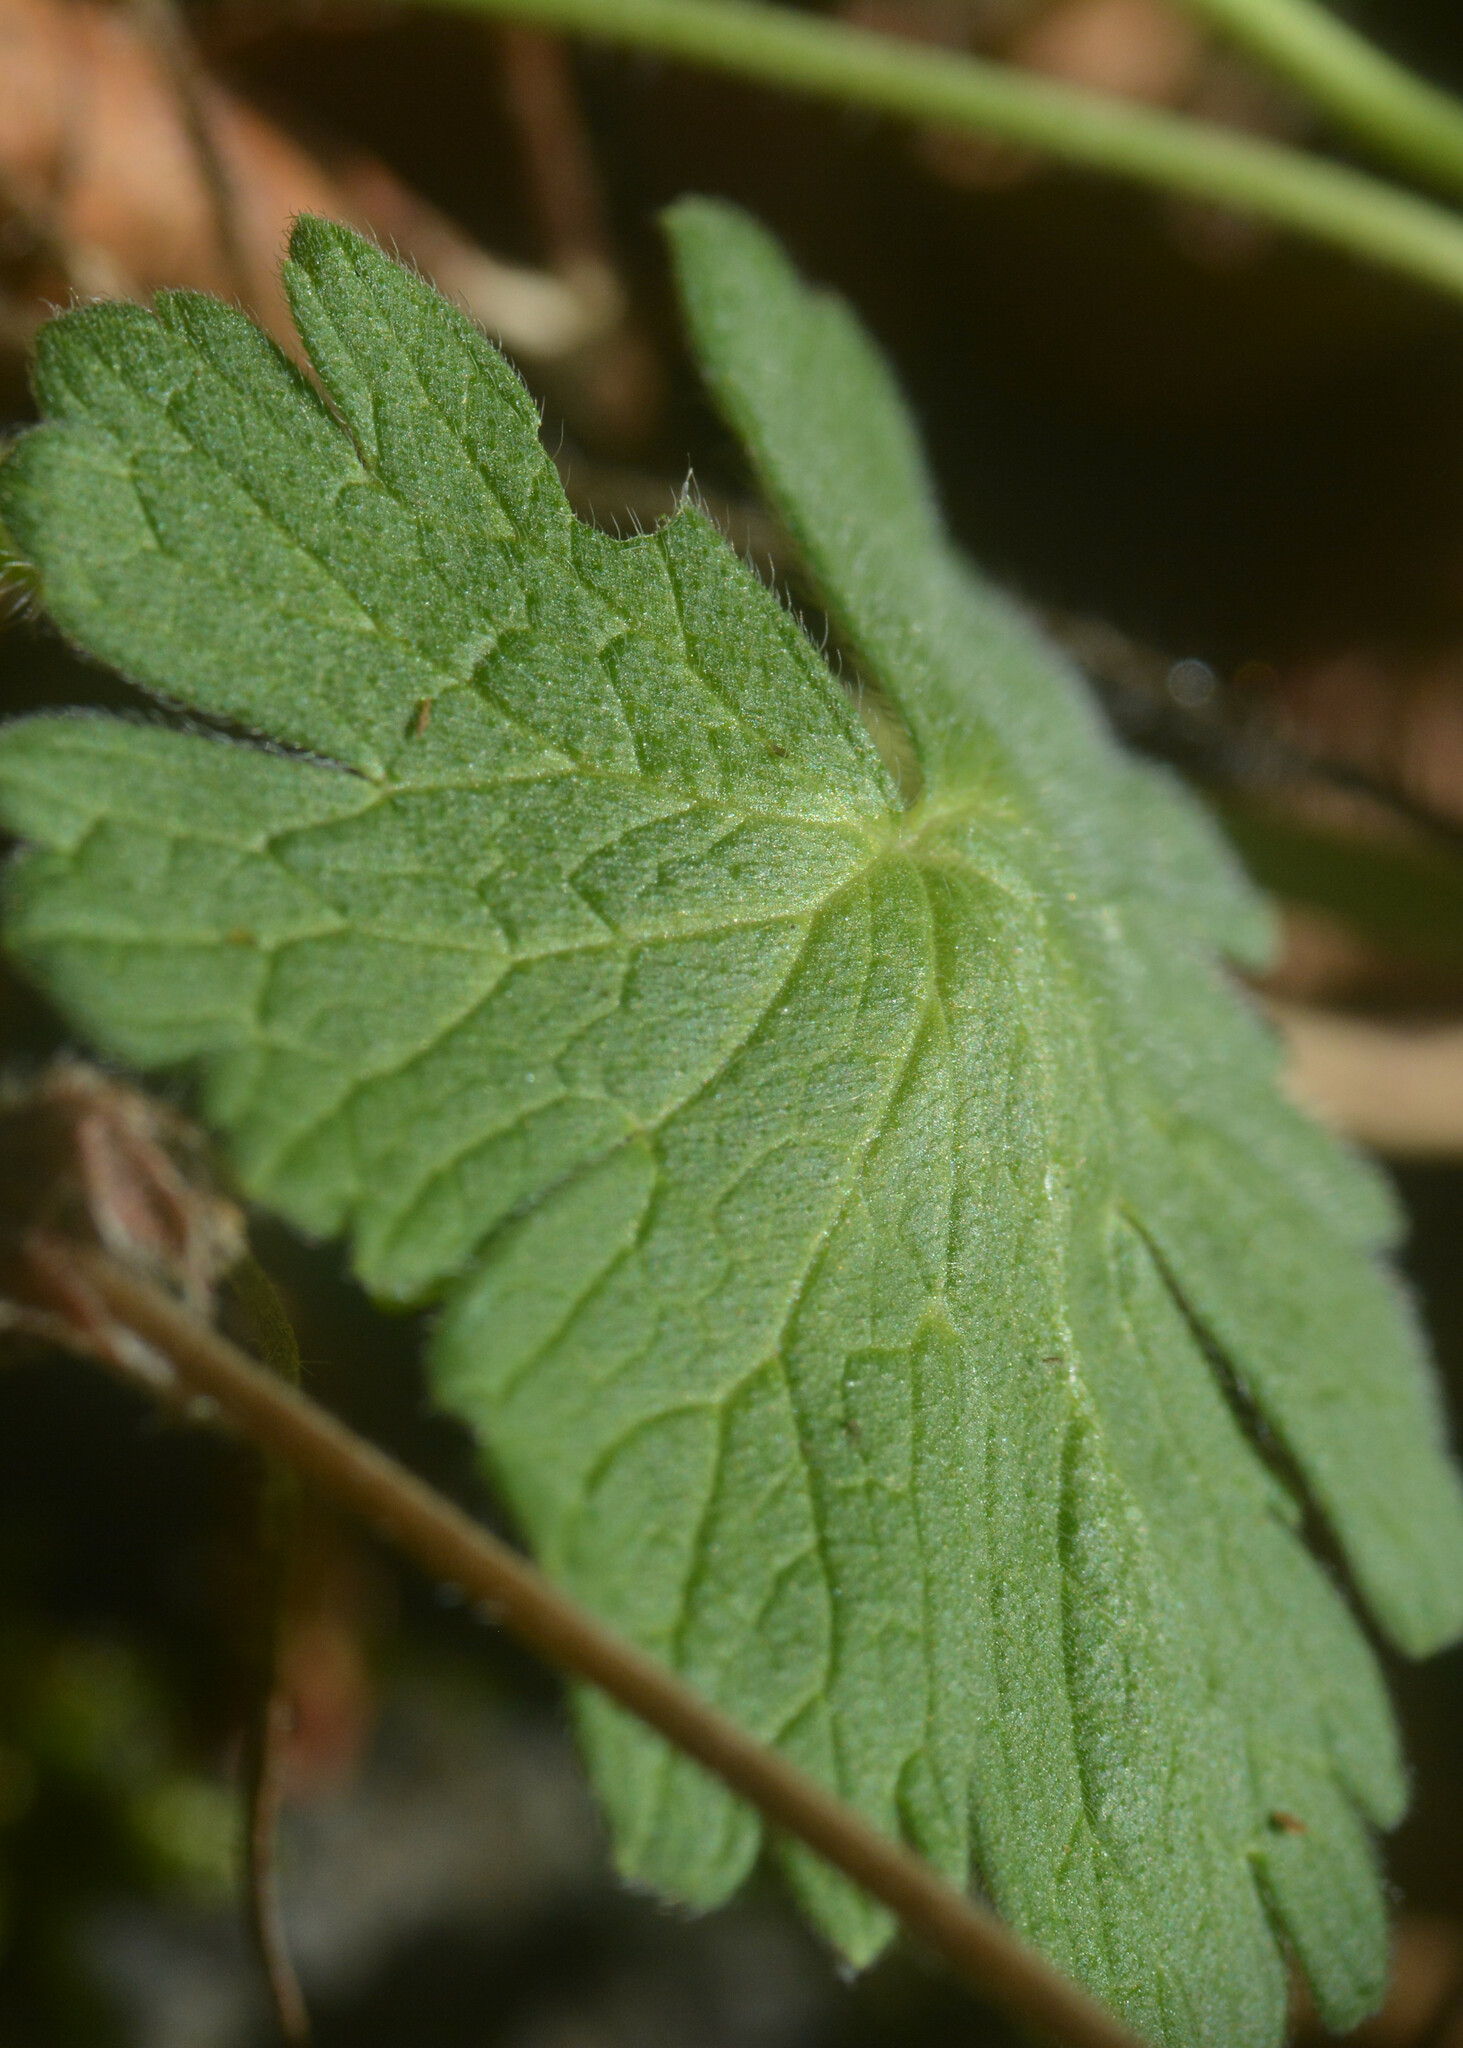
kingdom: Plantae
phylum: Tracheophyta
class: Magnoliopsida
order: Geraniales
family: Geraniaceae
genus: Geranium
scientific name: Geranium pyrenaicum
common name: Hedgerow crane's-bill
